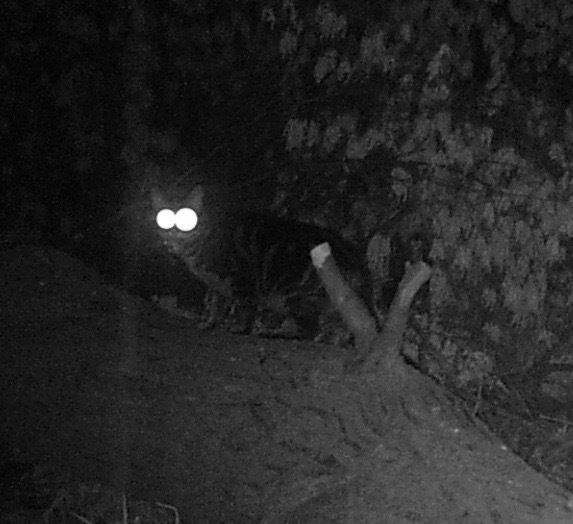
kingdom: Animalia
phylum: Chordata
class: Mammalia
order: Carnivora
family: Felidae
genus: Felis
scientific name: Felis catus
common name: Domestic cat
